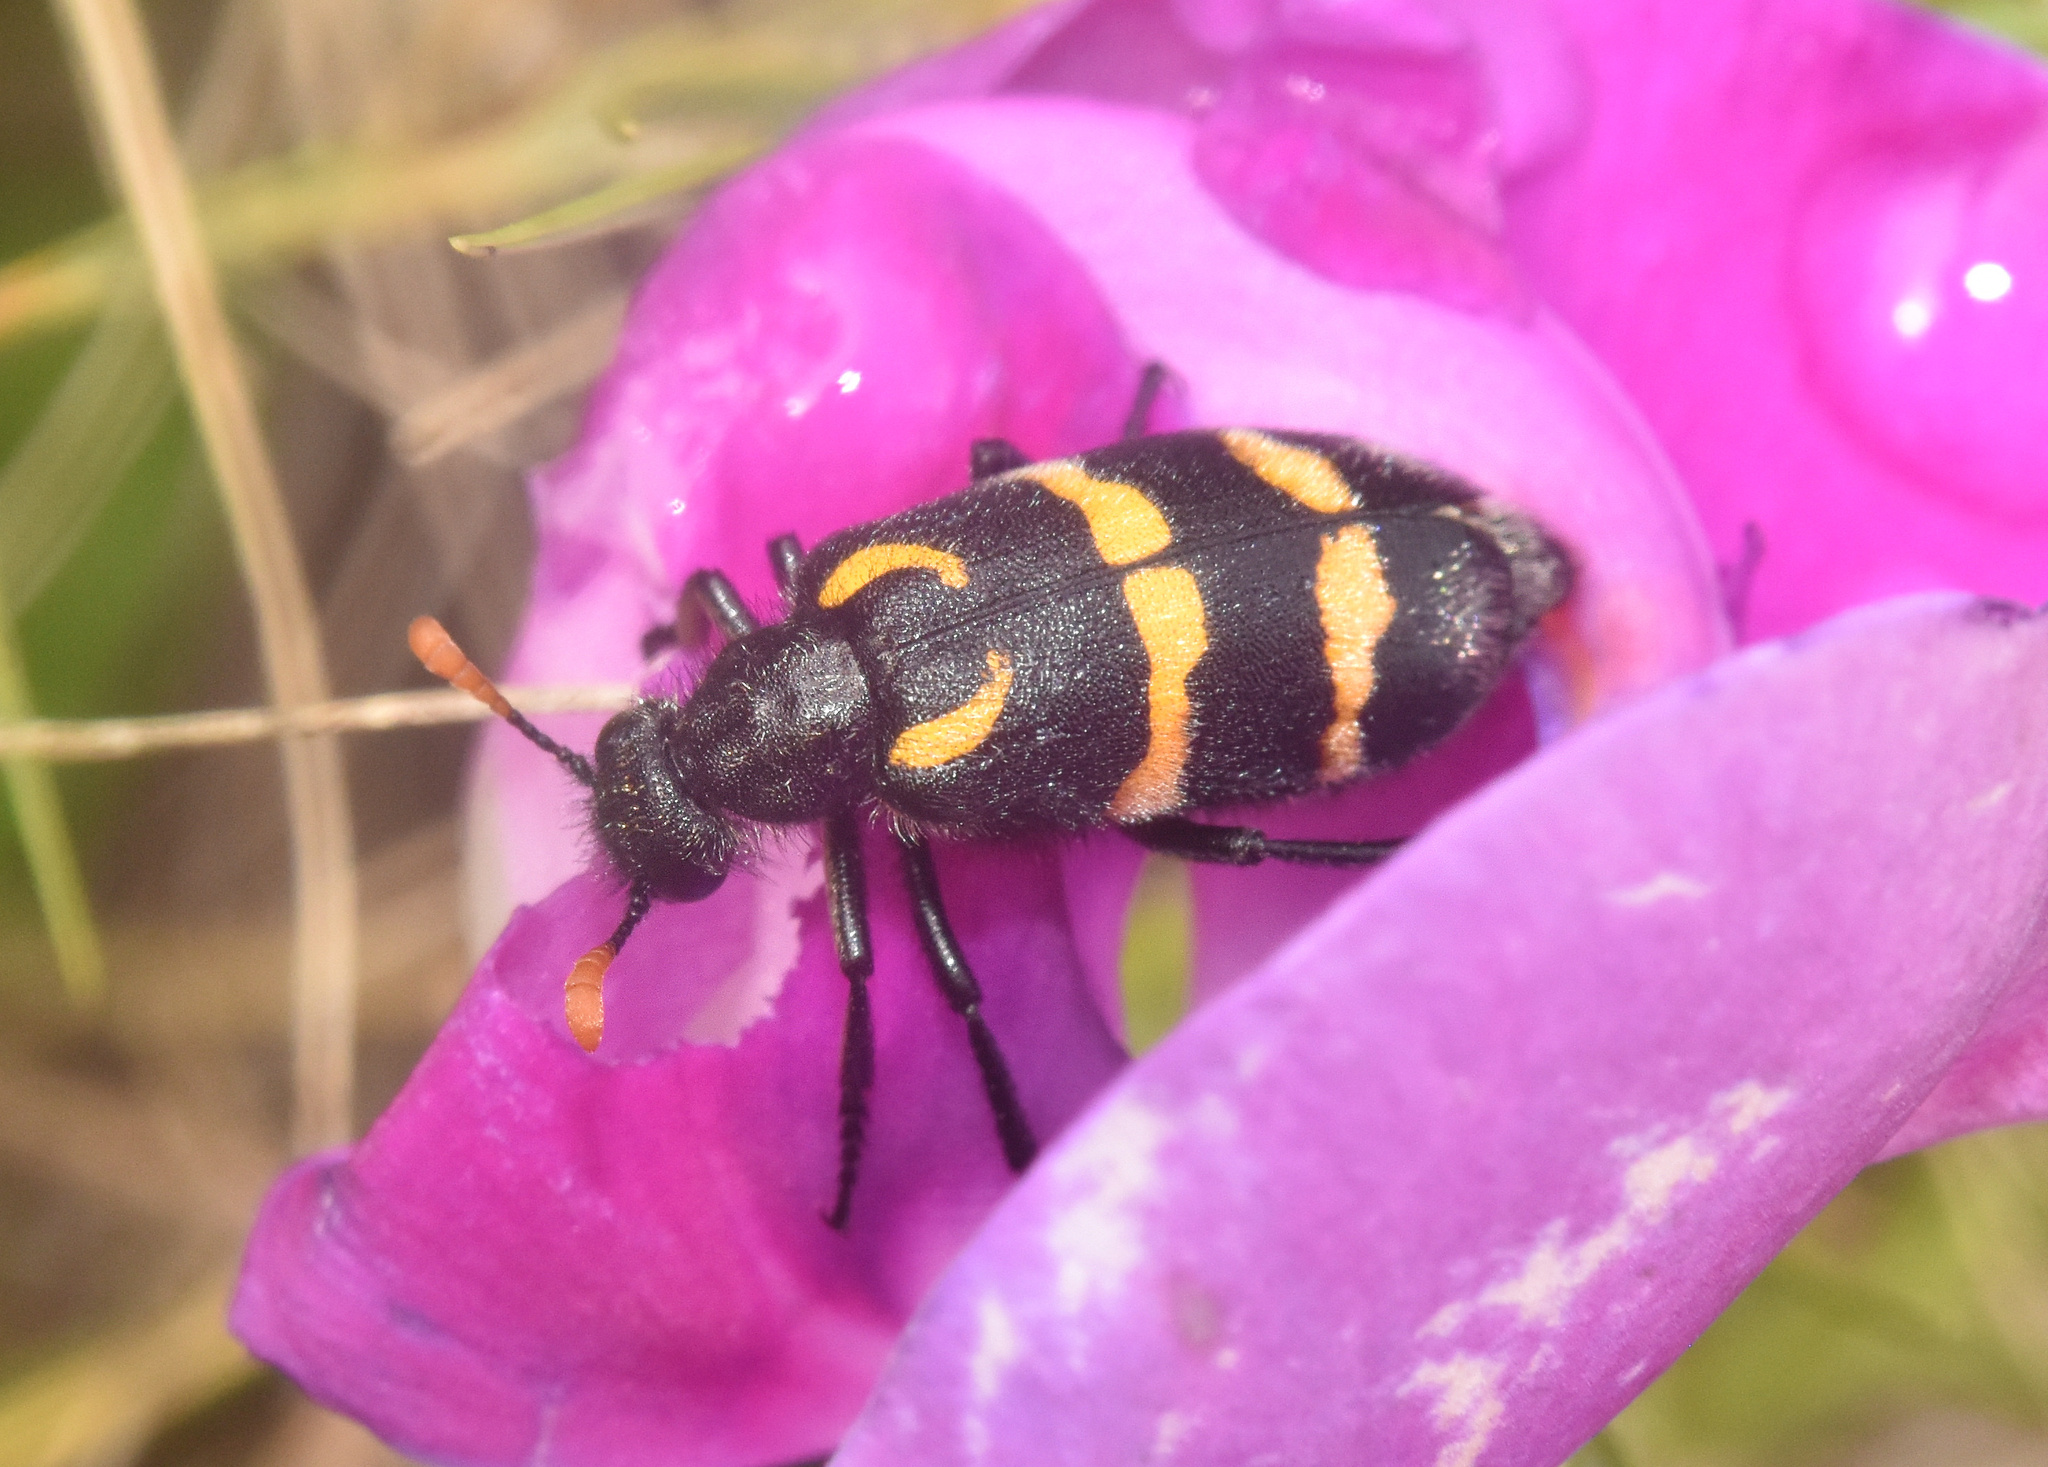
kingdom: Animalia
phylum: Arthropoda
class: Insecta
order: Coleoptera
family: Meloidae
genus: Meloe
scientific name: Meloe lunata
